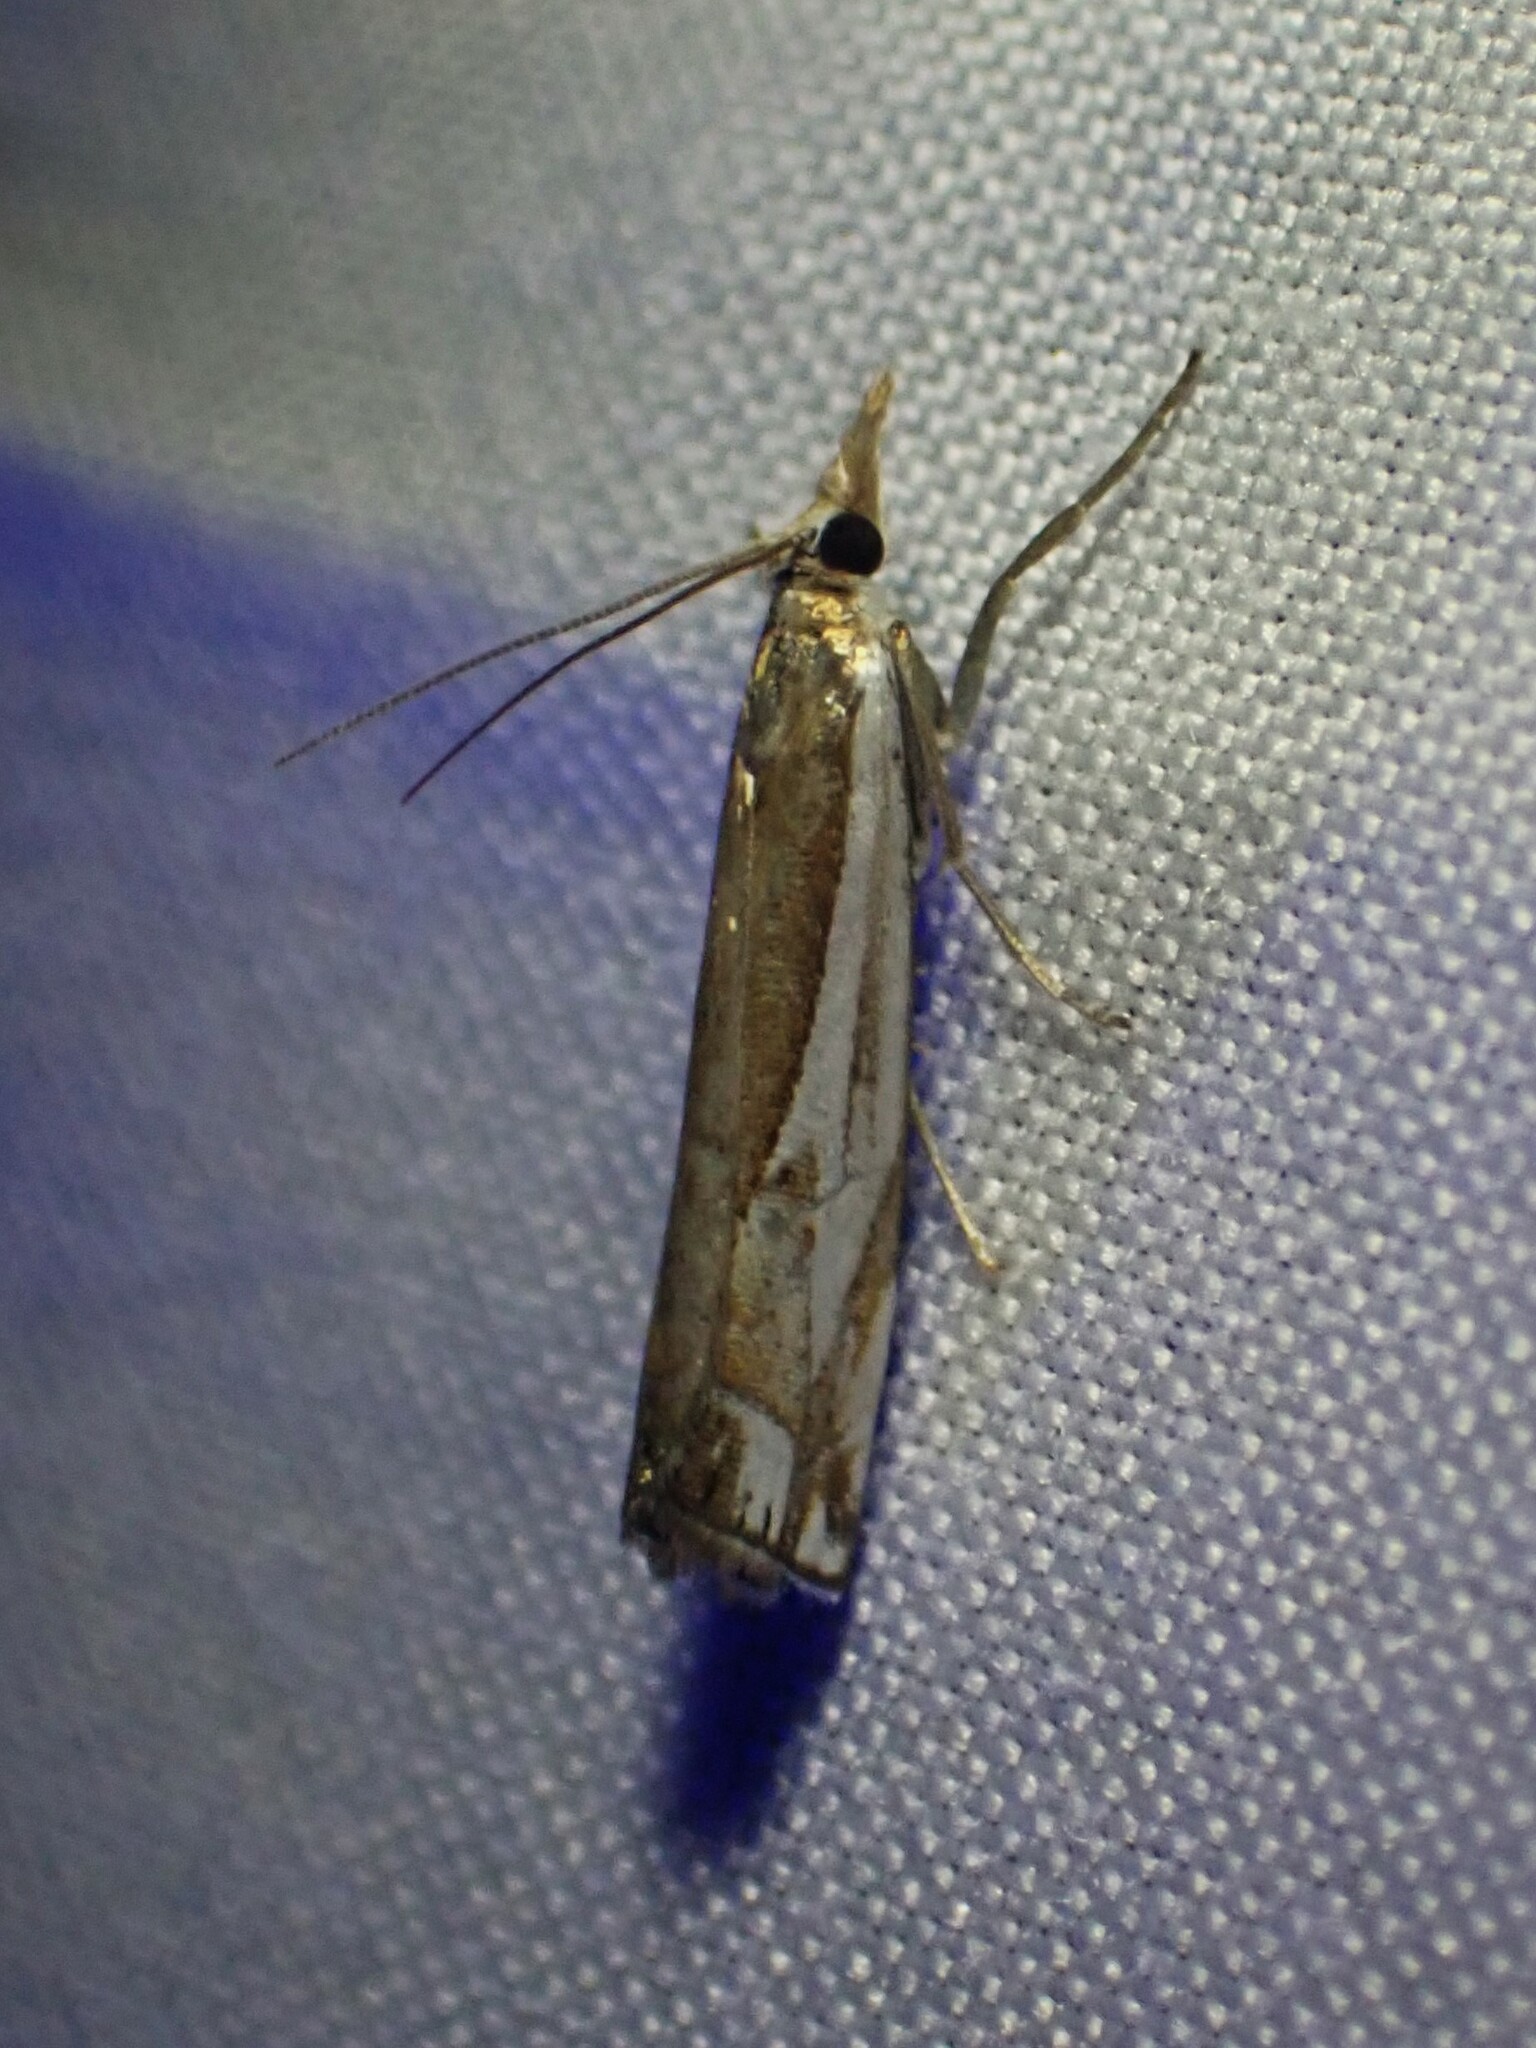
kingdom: Animalia
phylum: Arthropoda
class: Insecta
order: Lepidoptera
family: Crambidae
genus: Crambus
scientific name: Crambus bidens
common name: Forked grass-veneer
